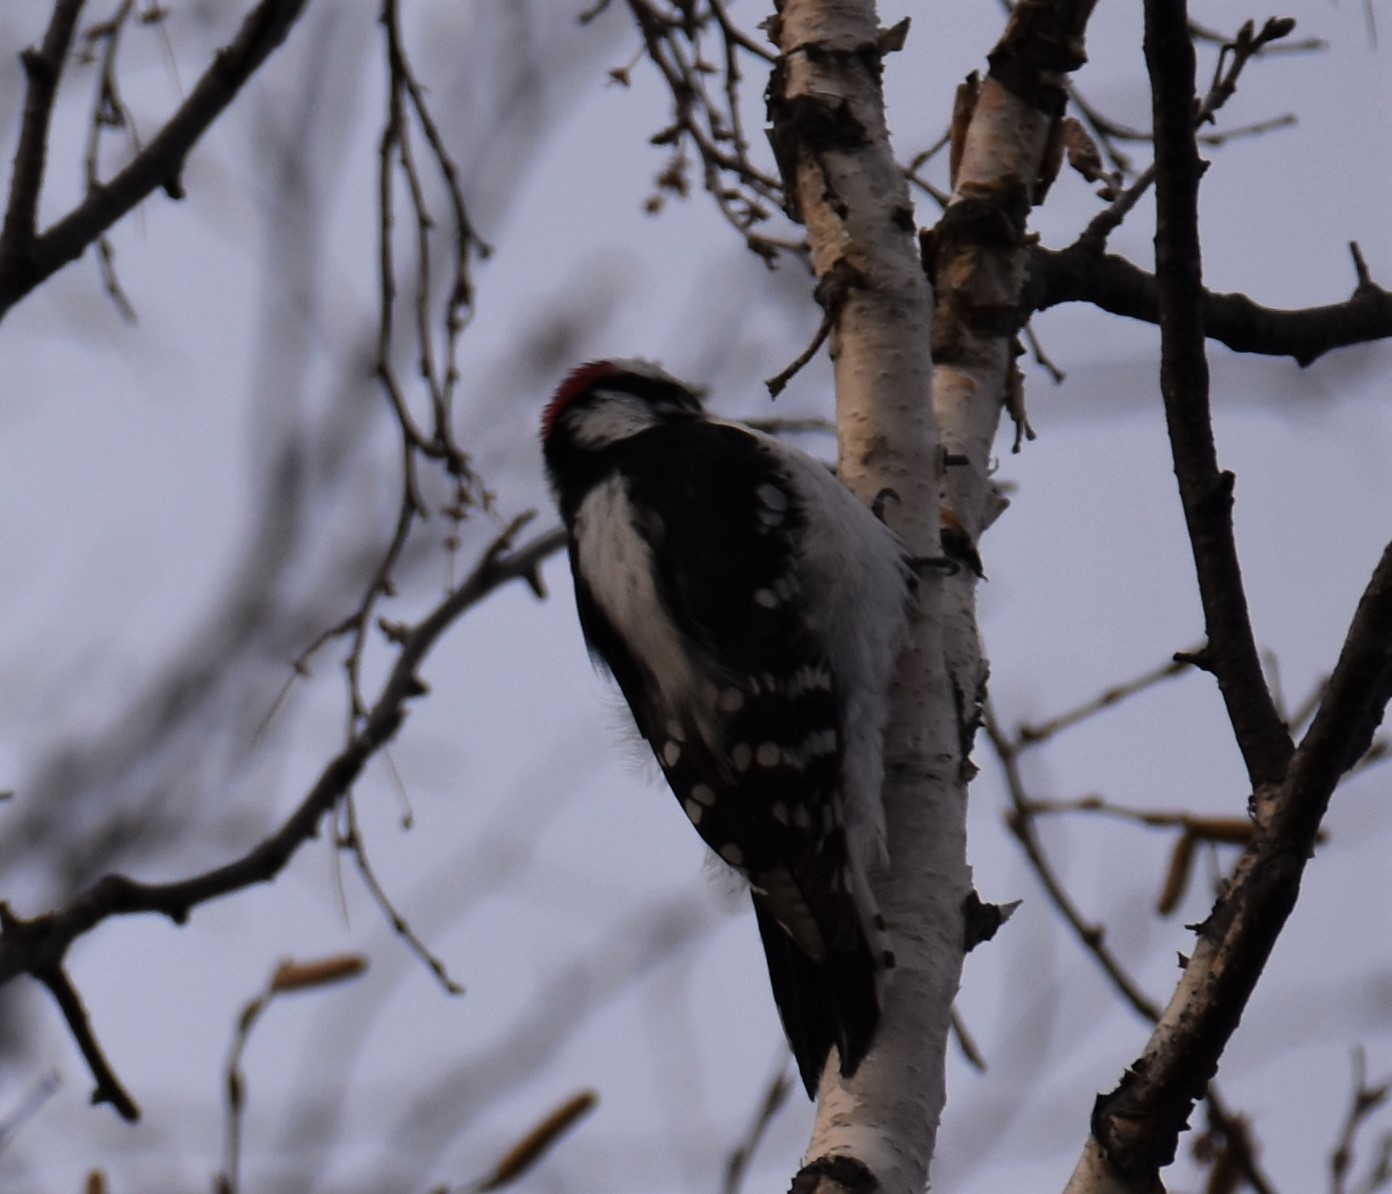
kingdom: Animalia
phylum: Chordata
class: Aves
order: Piciformes
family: Picidae
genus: Dryobates
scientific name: Dryobates pubescens
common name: Downy woodpecker
